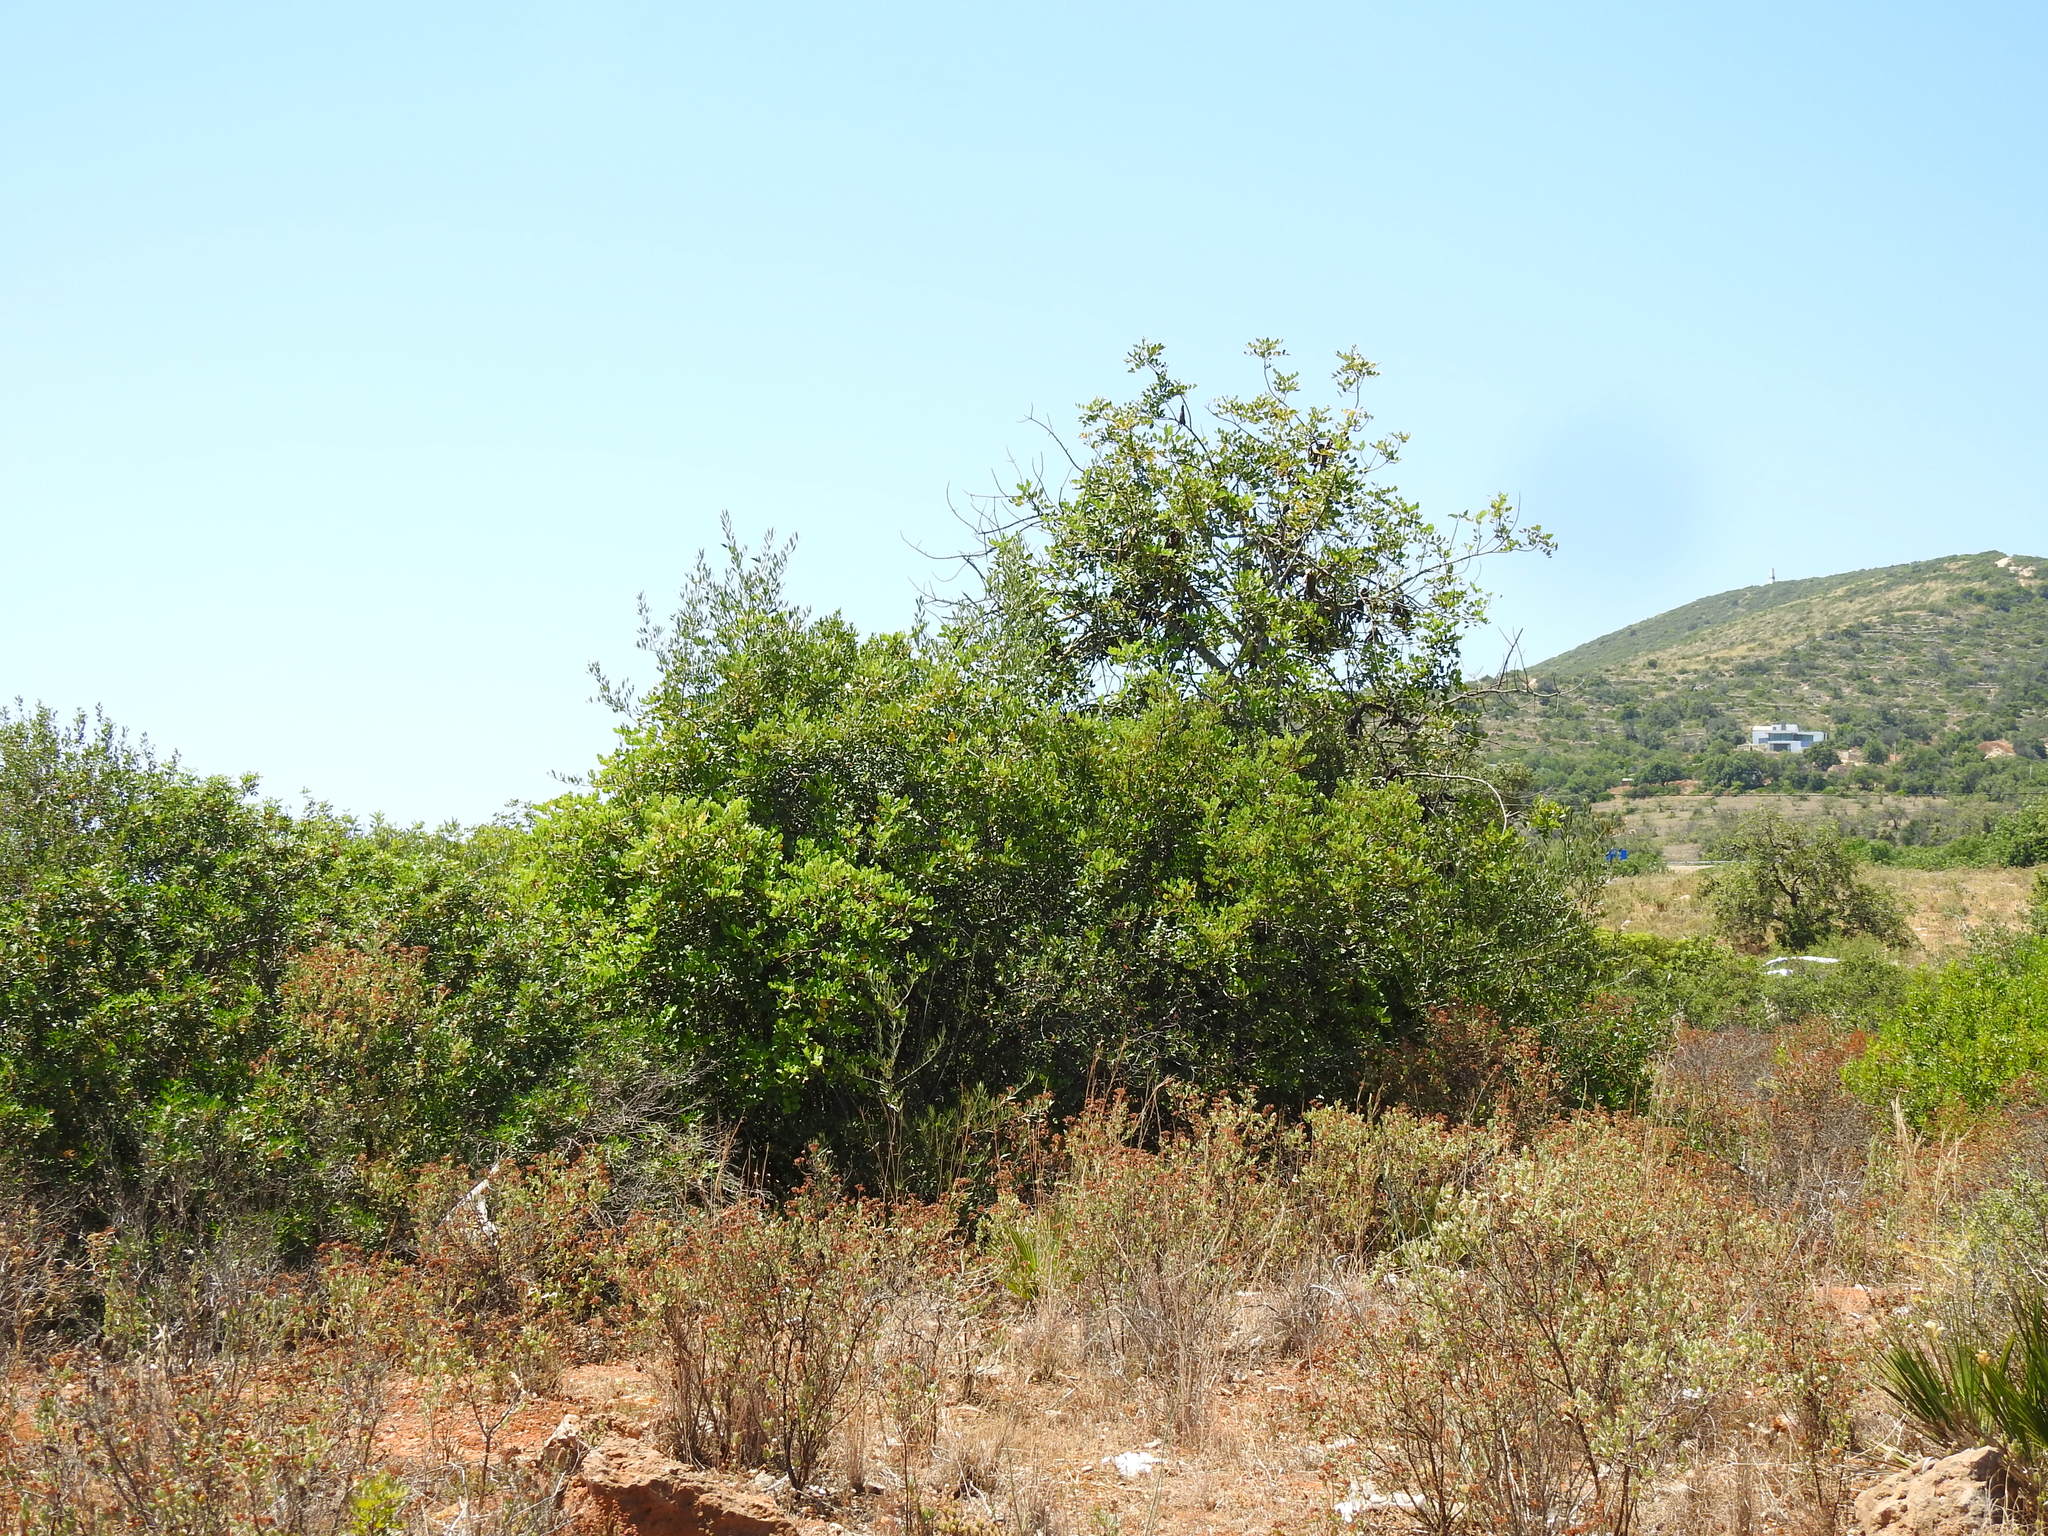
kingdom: Plantae
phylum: Tracheophyta
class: Magnoliopsida
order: Fabales
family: Fabaceae
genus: Ceratonia
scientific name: Ceratonia siliqua
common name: Carob
